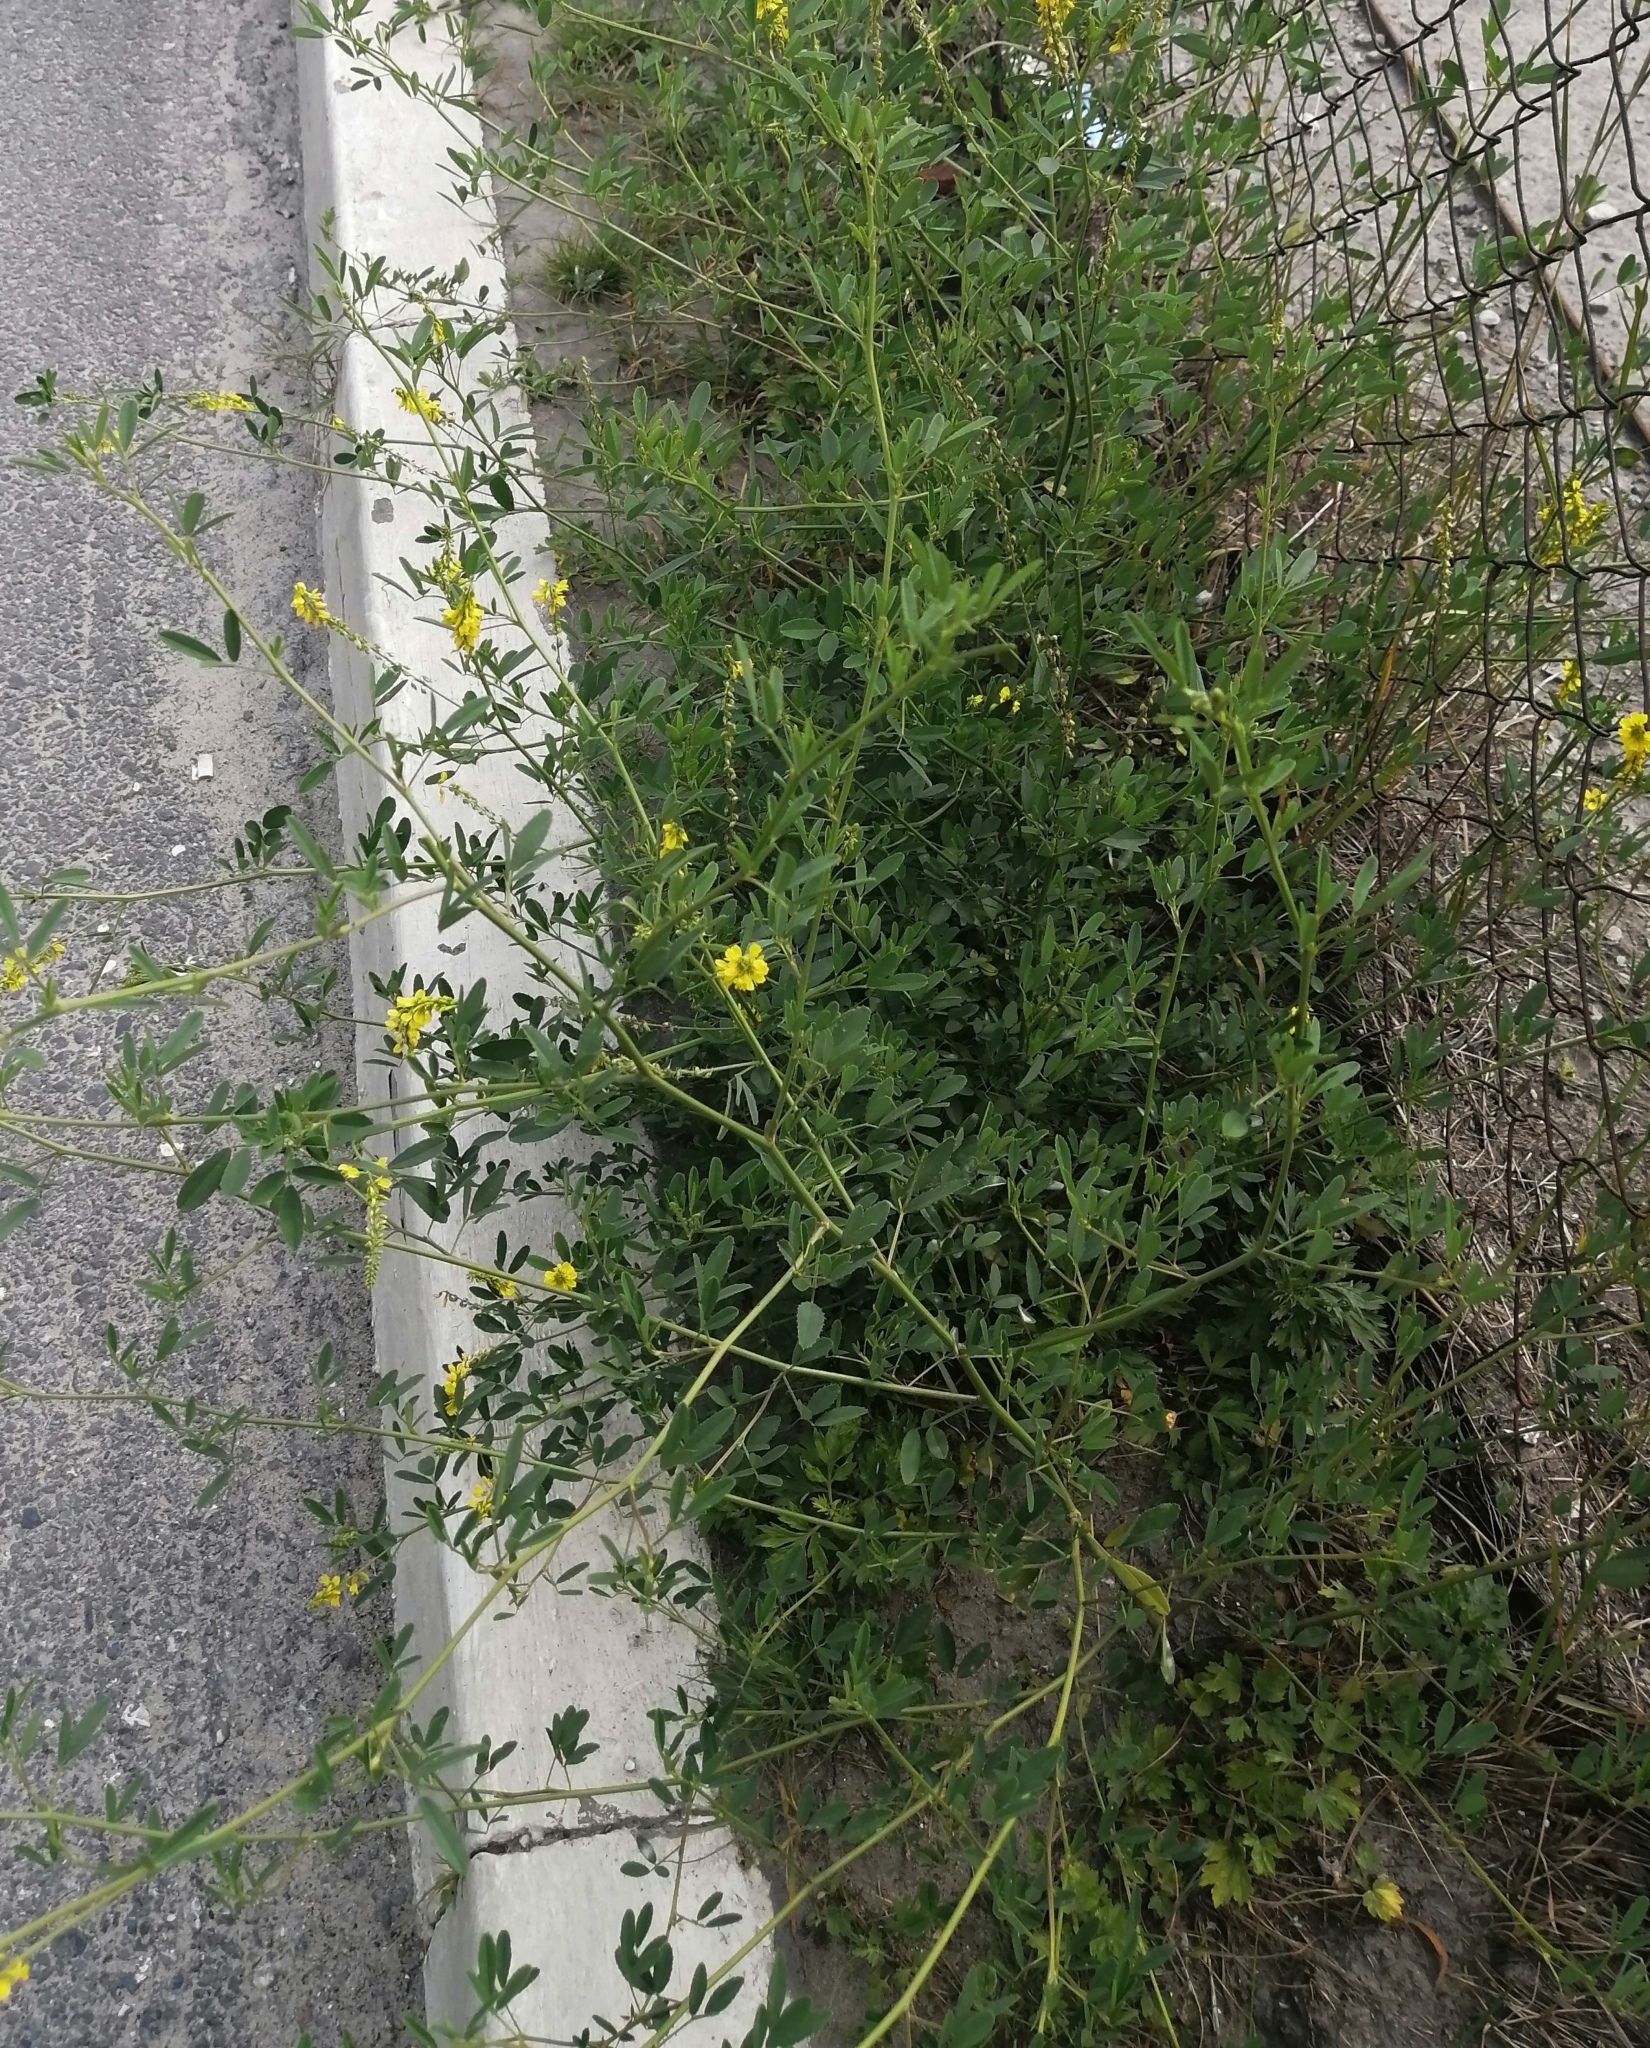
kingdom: Plantae
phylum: Tracheophyta
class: Magnoliopsida
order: Fabales
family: Fabaceae
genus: Melilotus
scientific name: Melilotus officinalis
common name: Sweetclover
